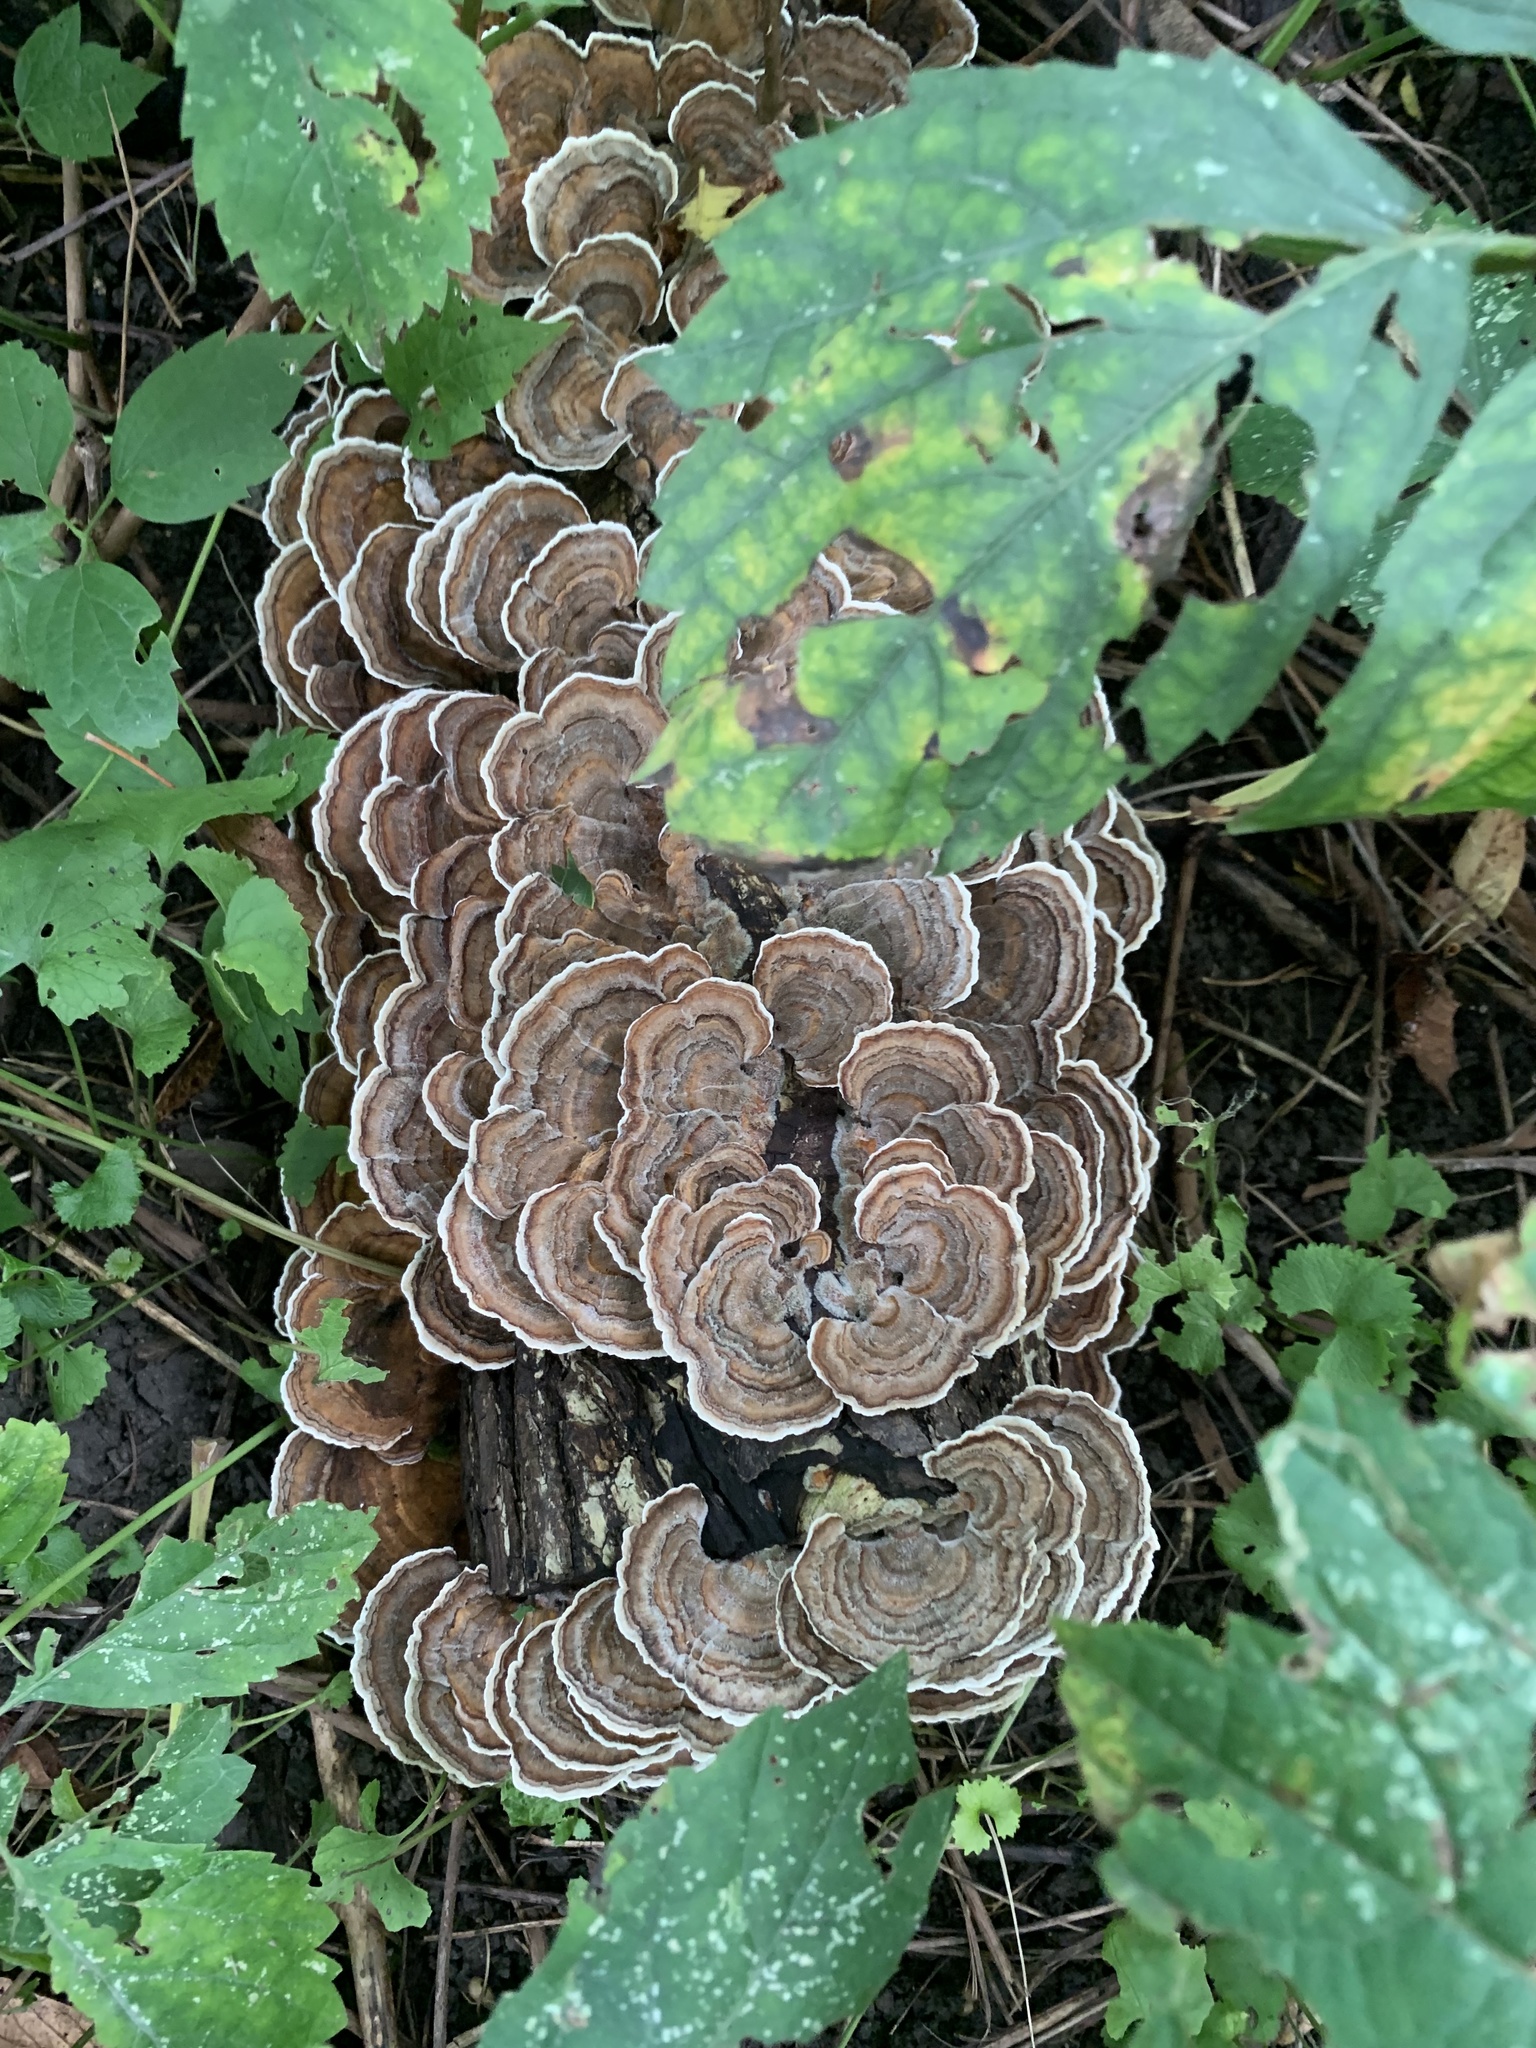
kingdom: Fungi
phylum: Basidiomycota
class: Agaricomycetes
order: Polyporales
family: Polyporaceae
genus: Trametes
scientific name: Trametes versicolor
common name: Turkeytail
